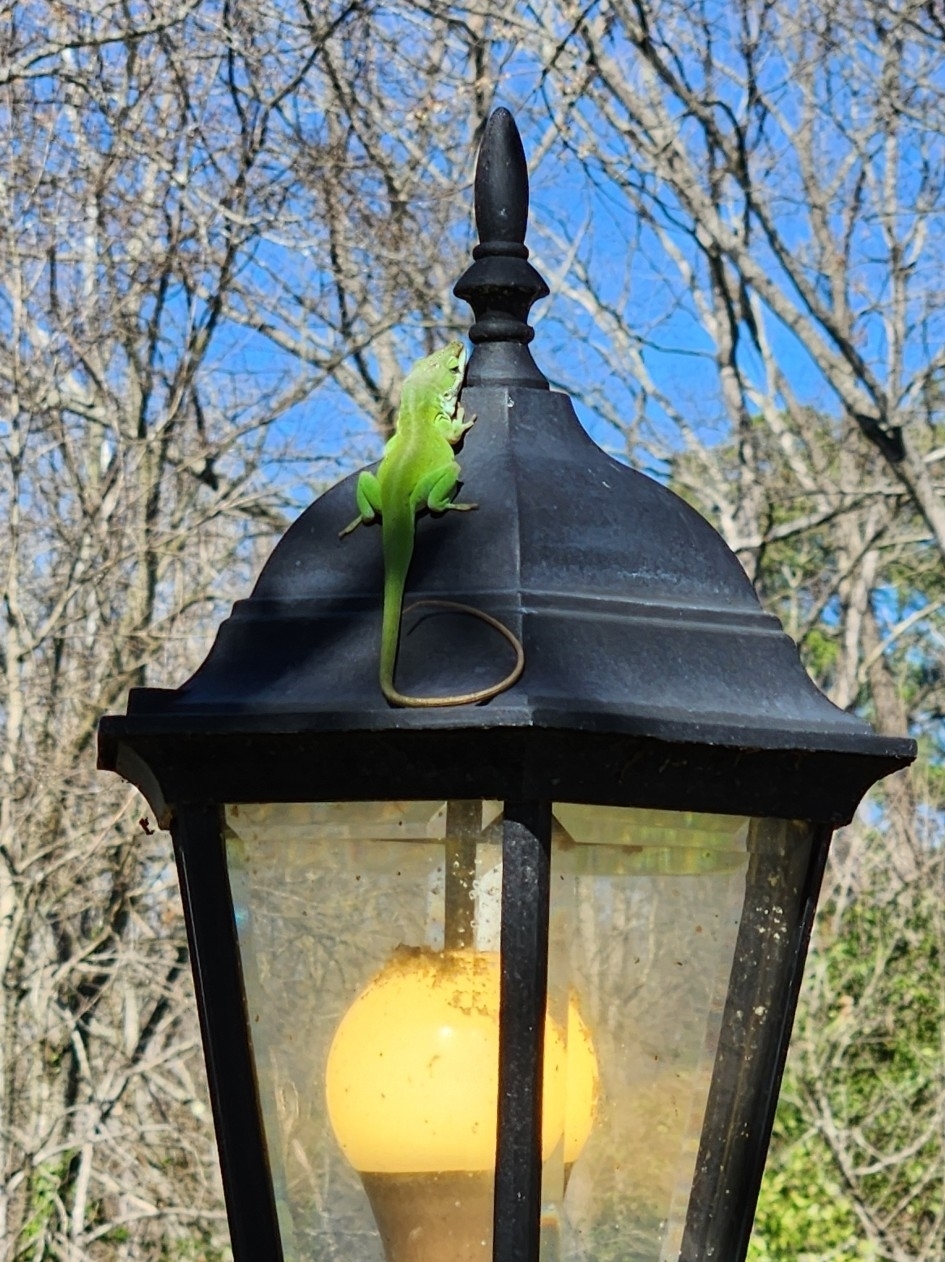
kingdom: Animalia
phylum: Chordata
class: Squamata
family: Dactyloidae
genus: Anolis
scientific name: Anolis carolinensis
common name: Green anole
